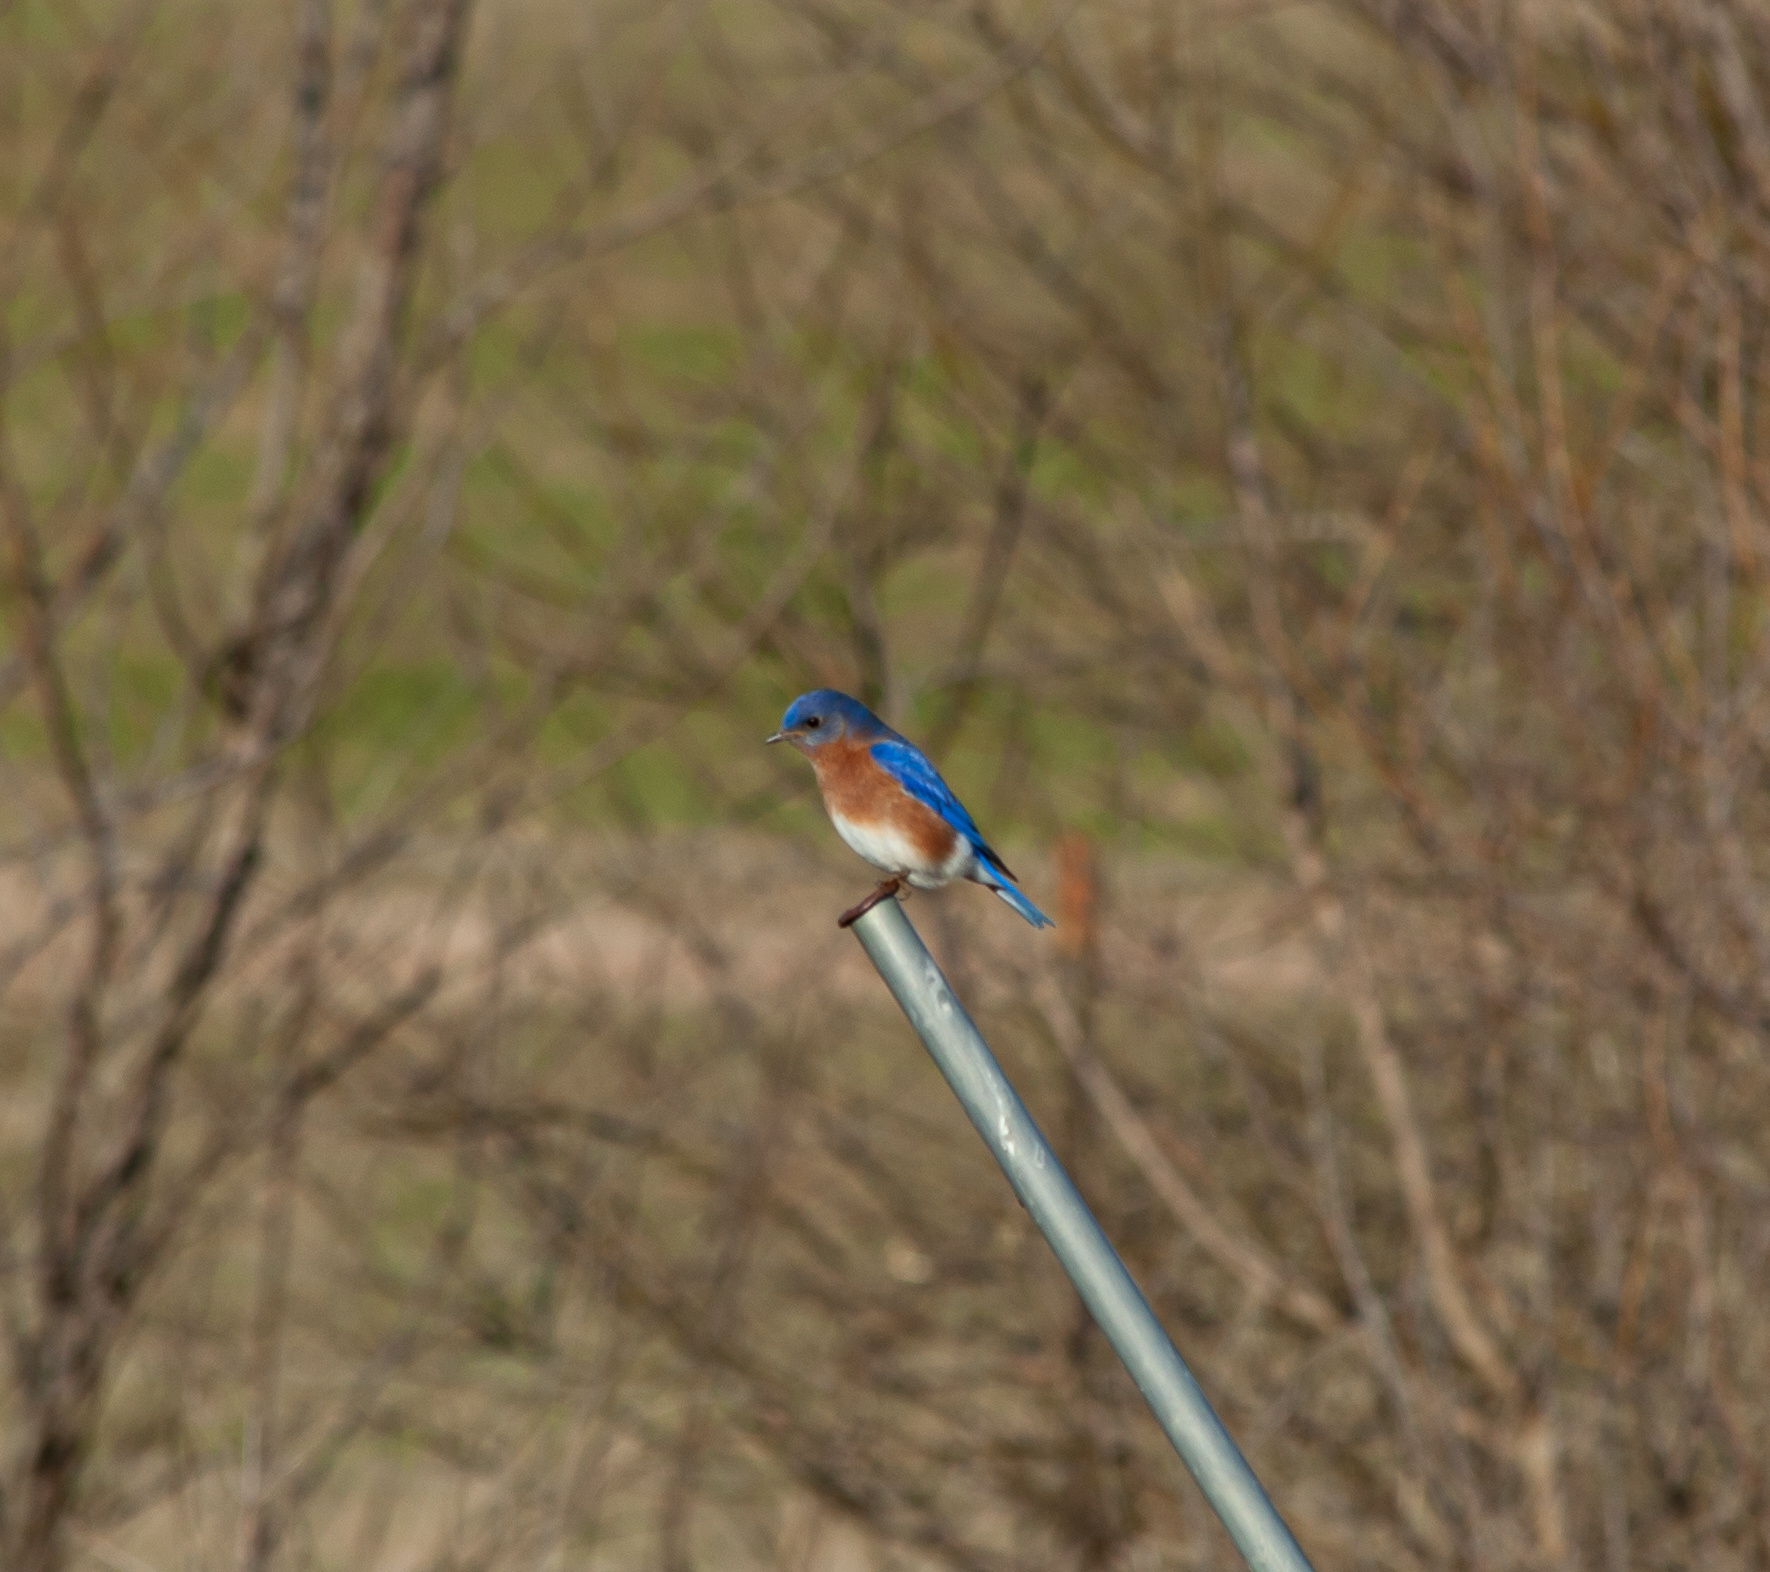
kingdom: Animalia
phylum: Chordata
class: Aves
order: Passeriformes
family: Turdidae
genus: Sialia
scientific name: Sialia sialis
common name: Eastern bluebird
